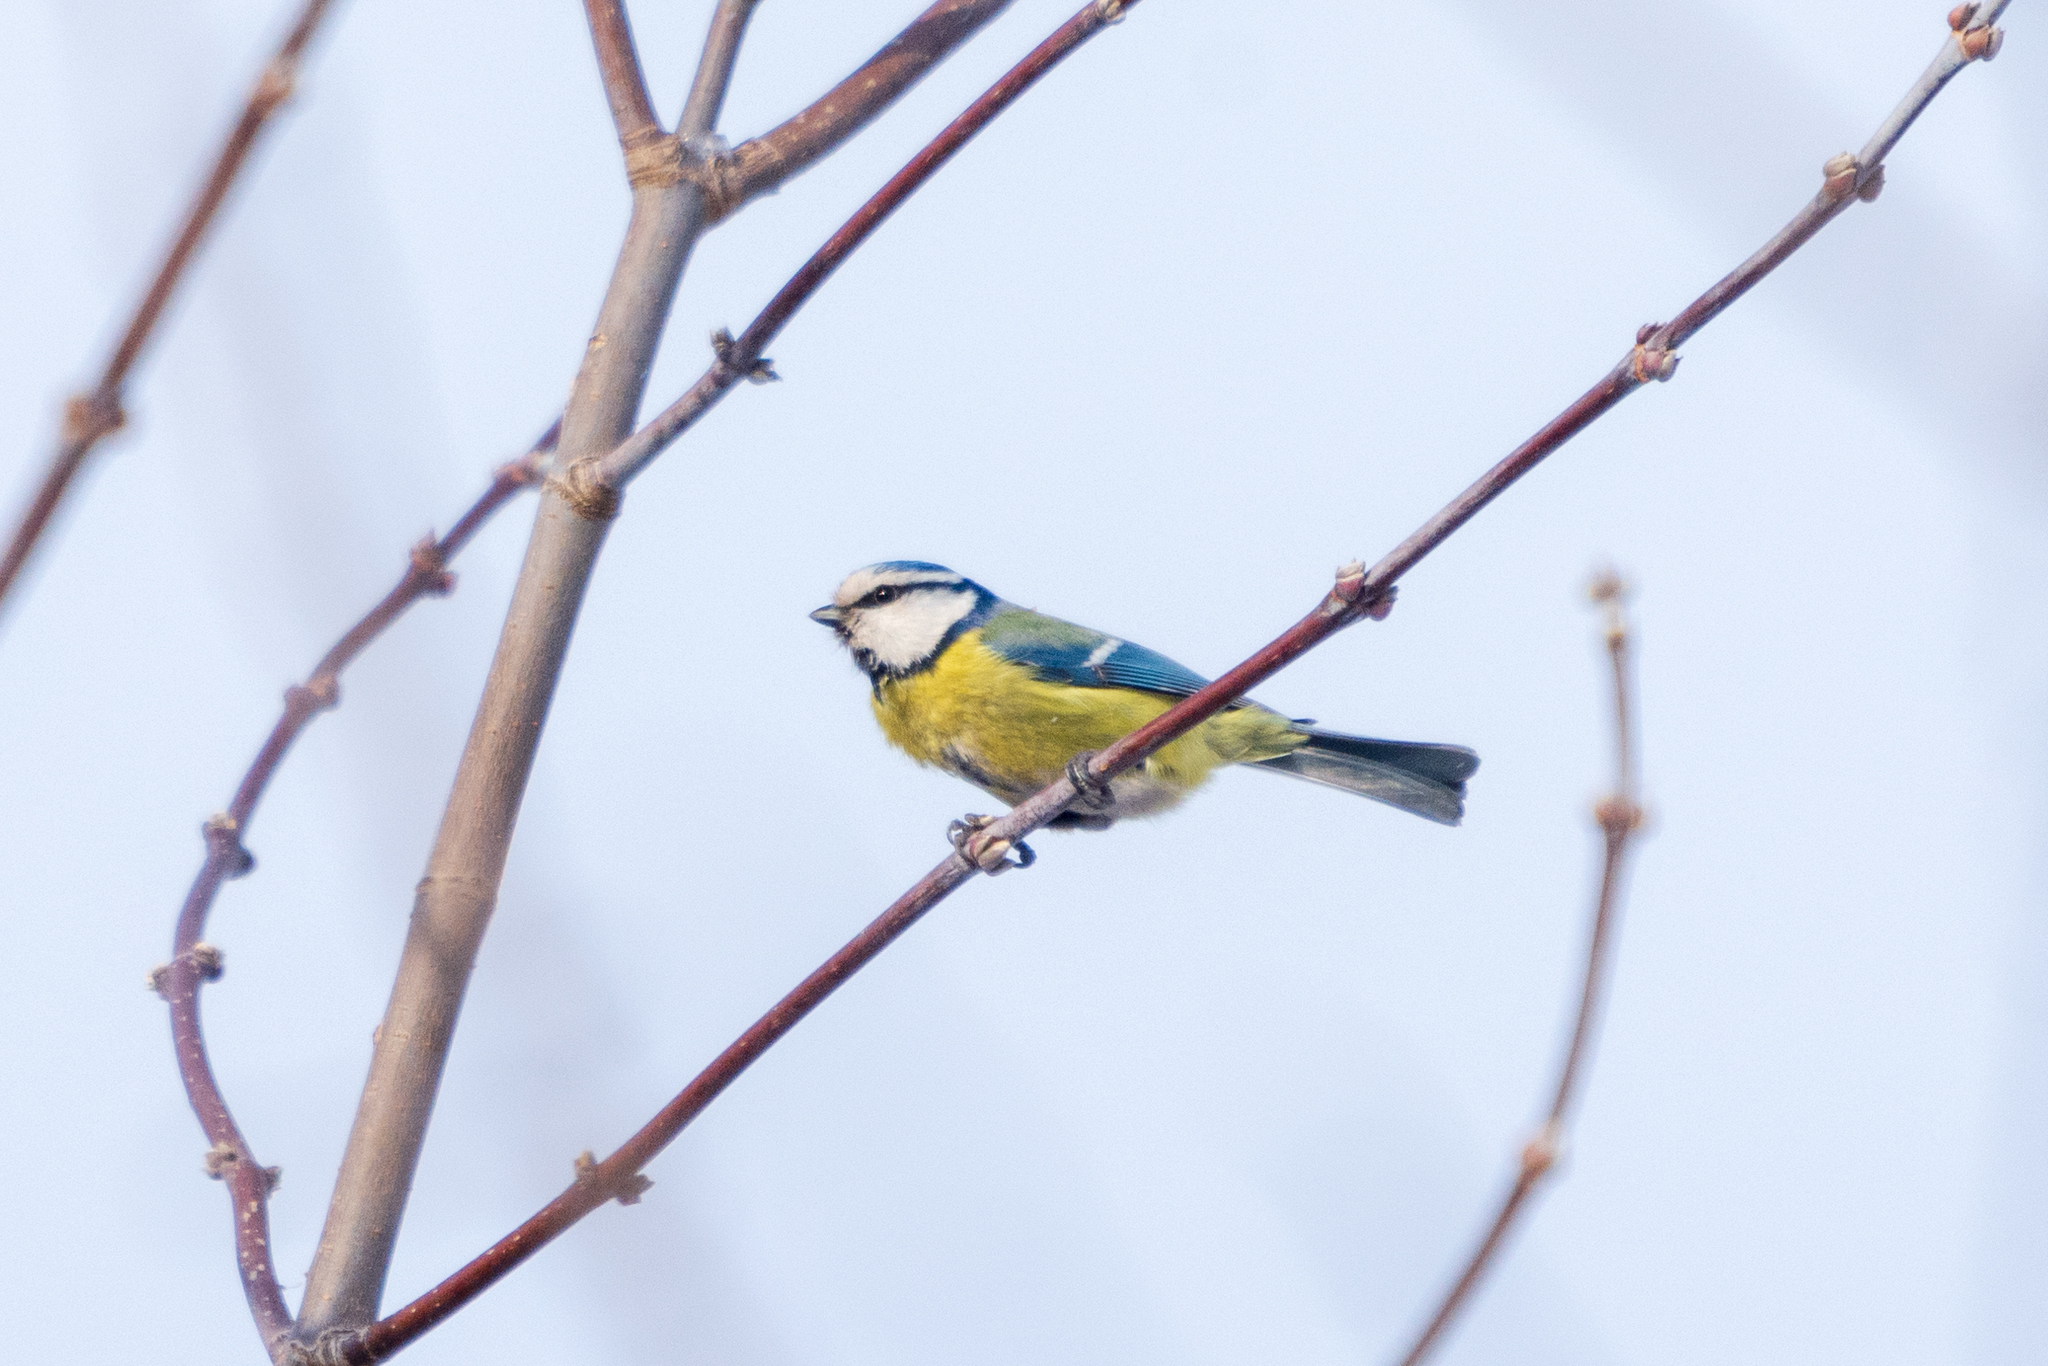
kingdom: Animalia
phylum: Chordata
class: Aves
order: Passeriformes
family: Paridae
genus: Cyanistes
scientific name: Cyanistes caeruleus
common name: Eurasian blue tit
